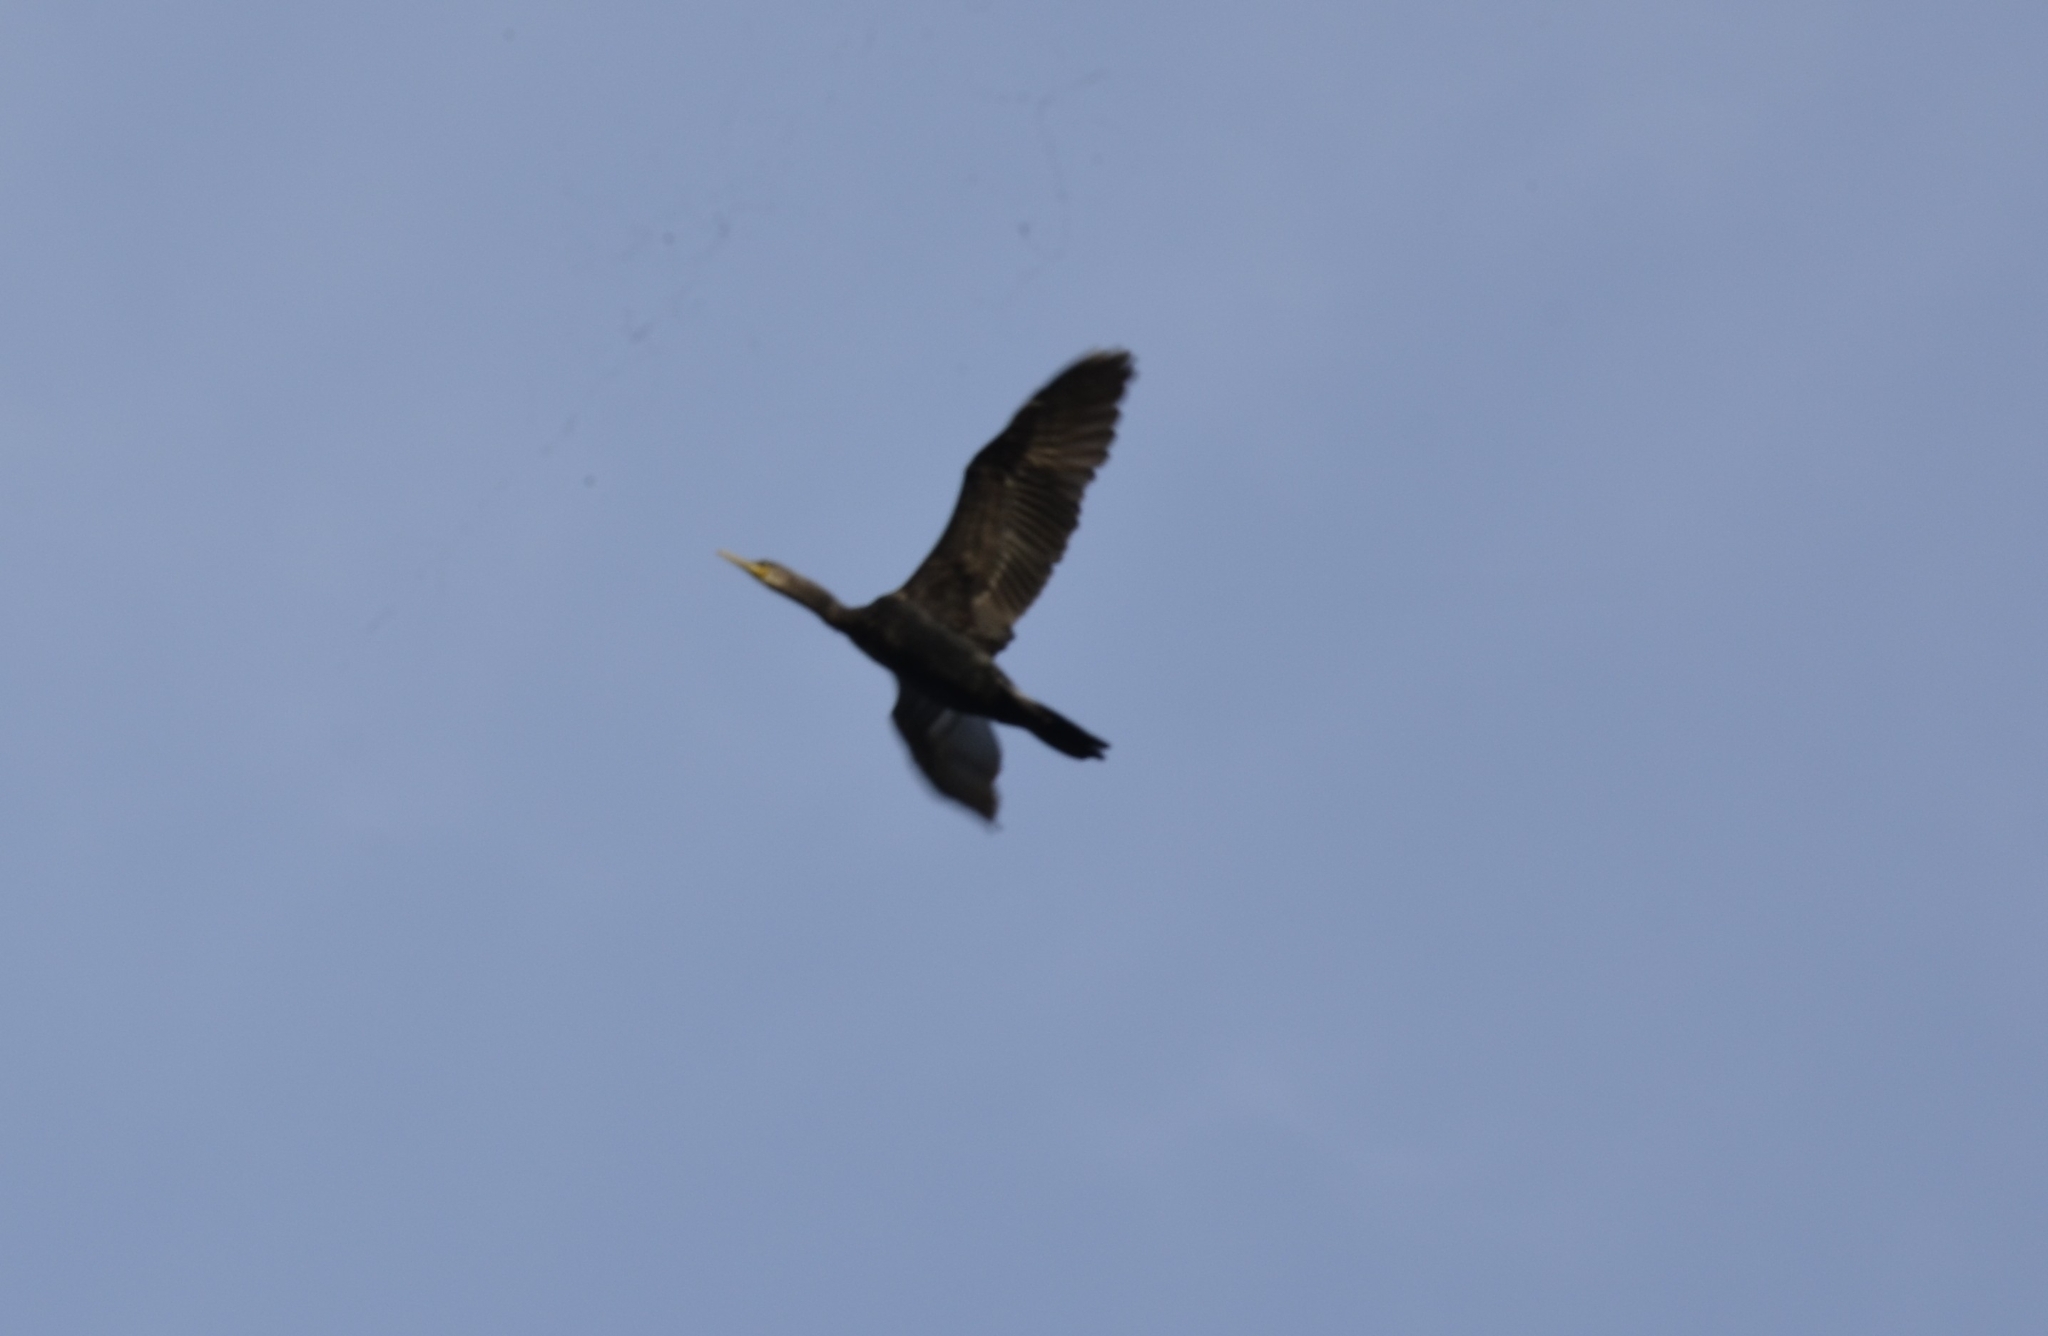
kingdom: Animalia
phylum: Chordata
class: Aves
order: Suliformes
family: Phalacrocoracidae
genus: Phalacrocorax
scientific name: Phalacrocorax fuscicollis
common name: Indian cormorant
